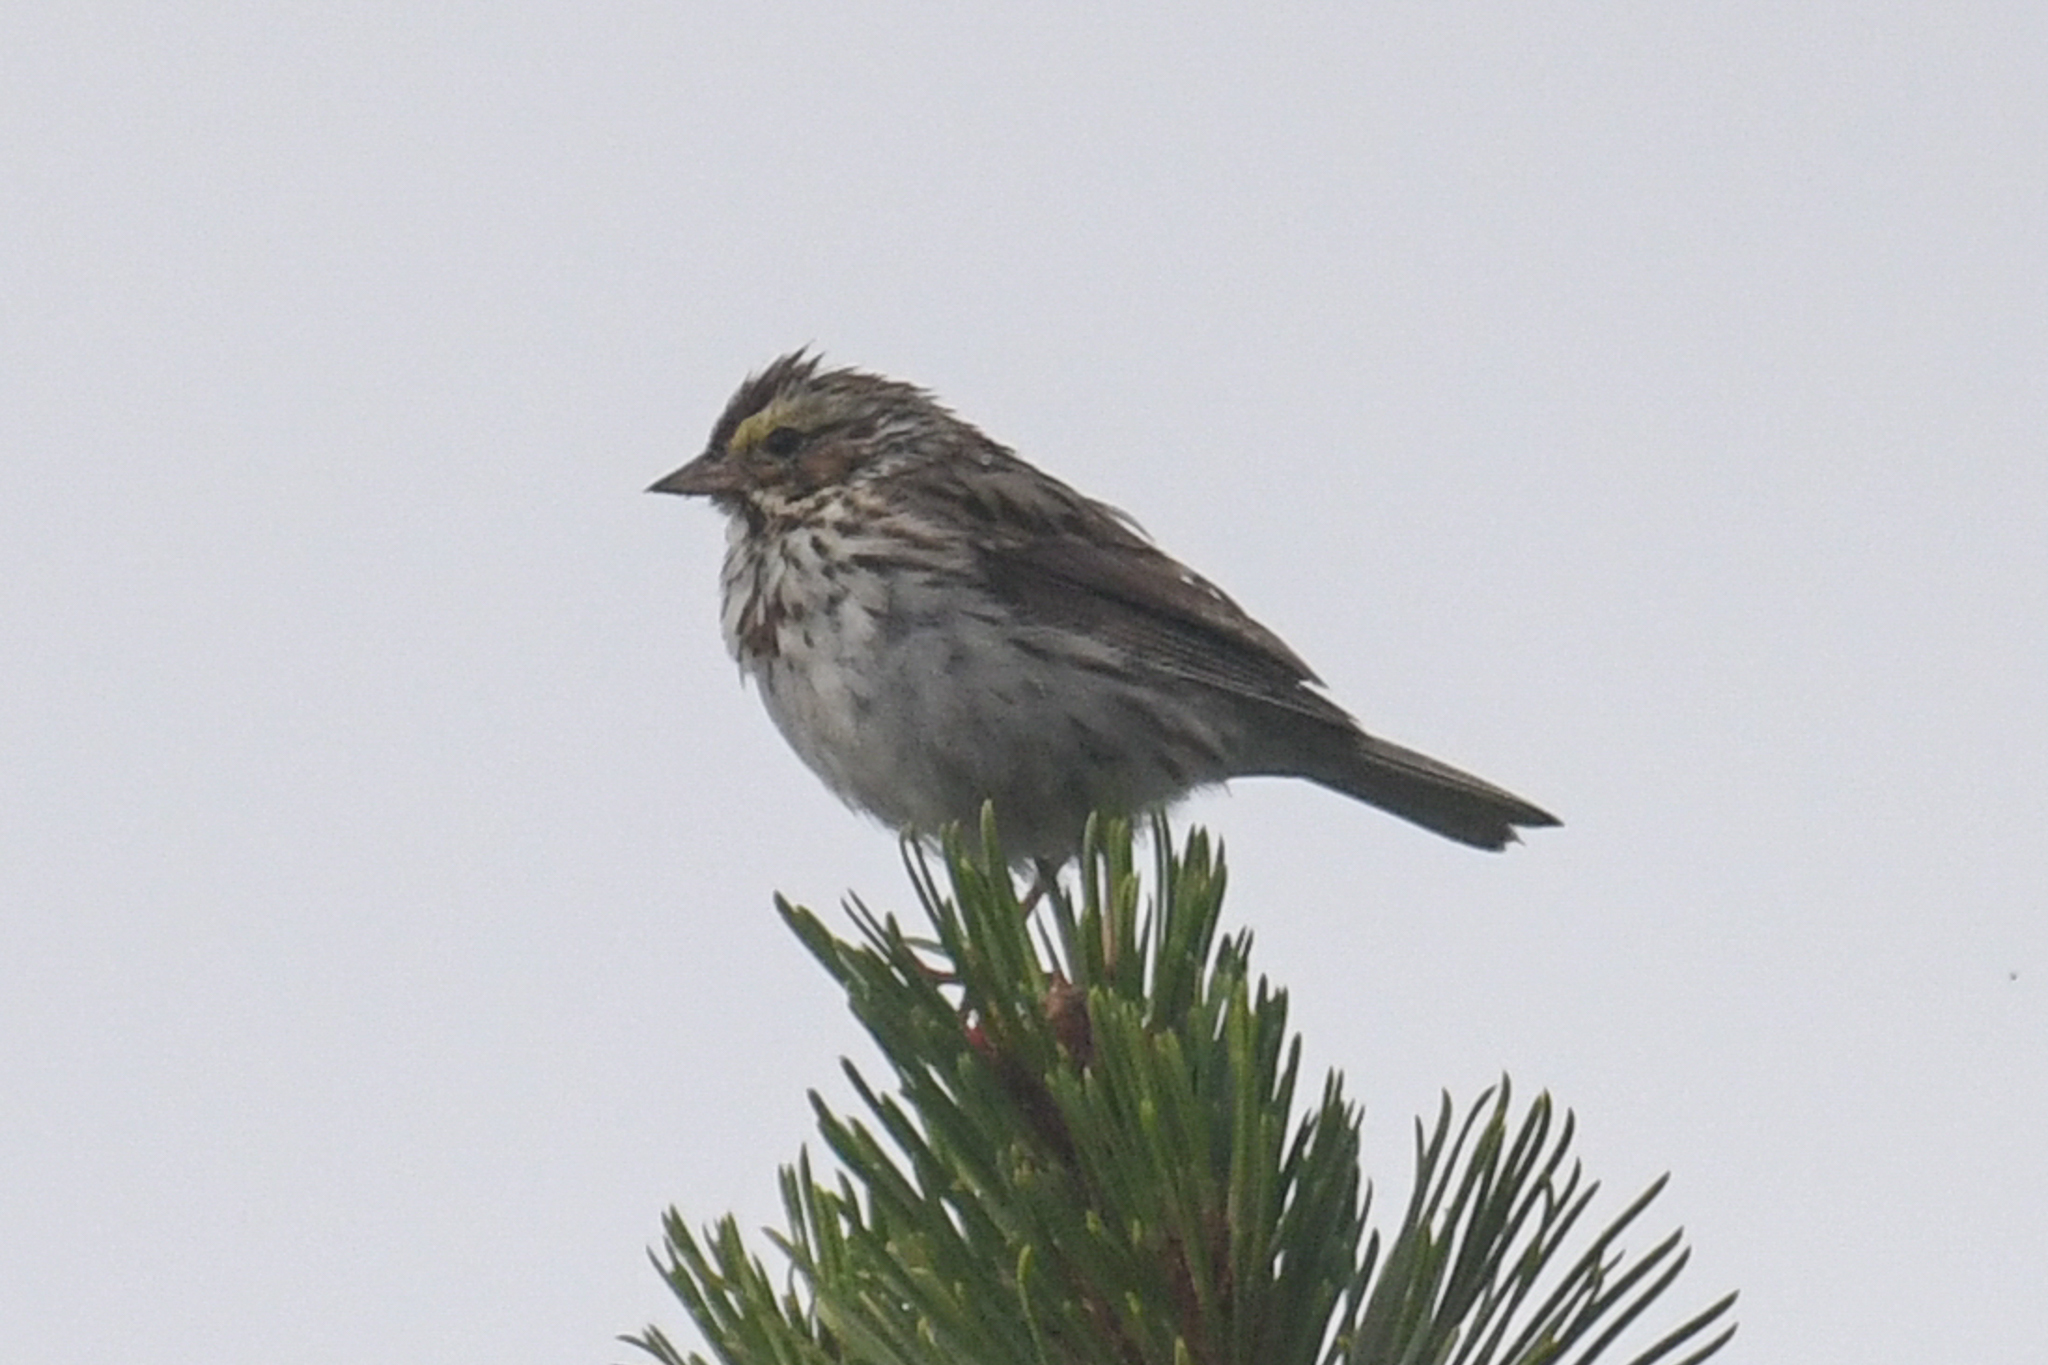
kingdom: Animalia
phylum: Chordata
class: Aves
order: Passeriformes
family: Passerellidae
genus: Passerculus
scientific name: Passerculus sandwichensis
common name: Savannah sparrow
